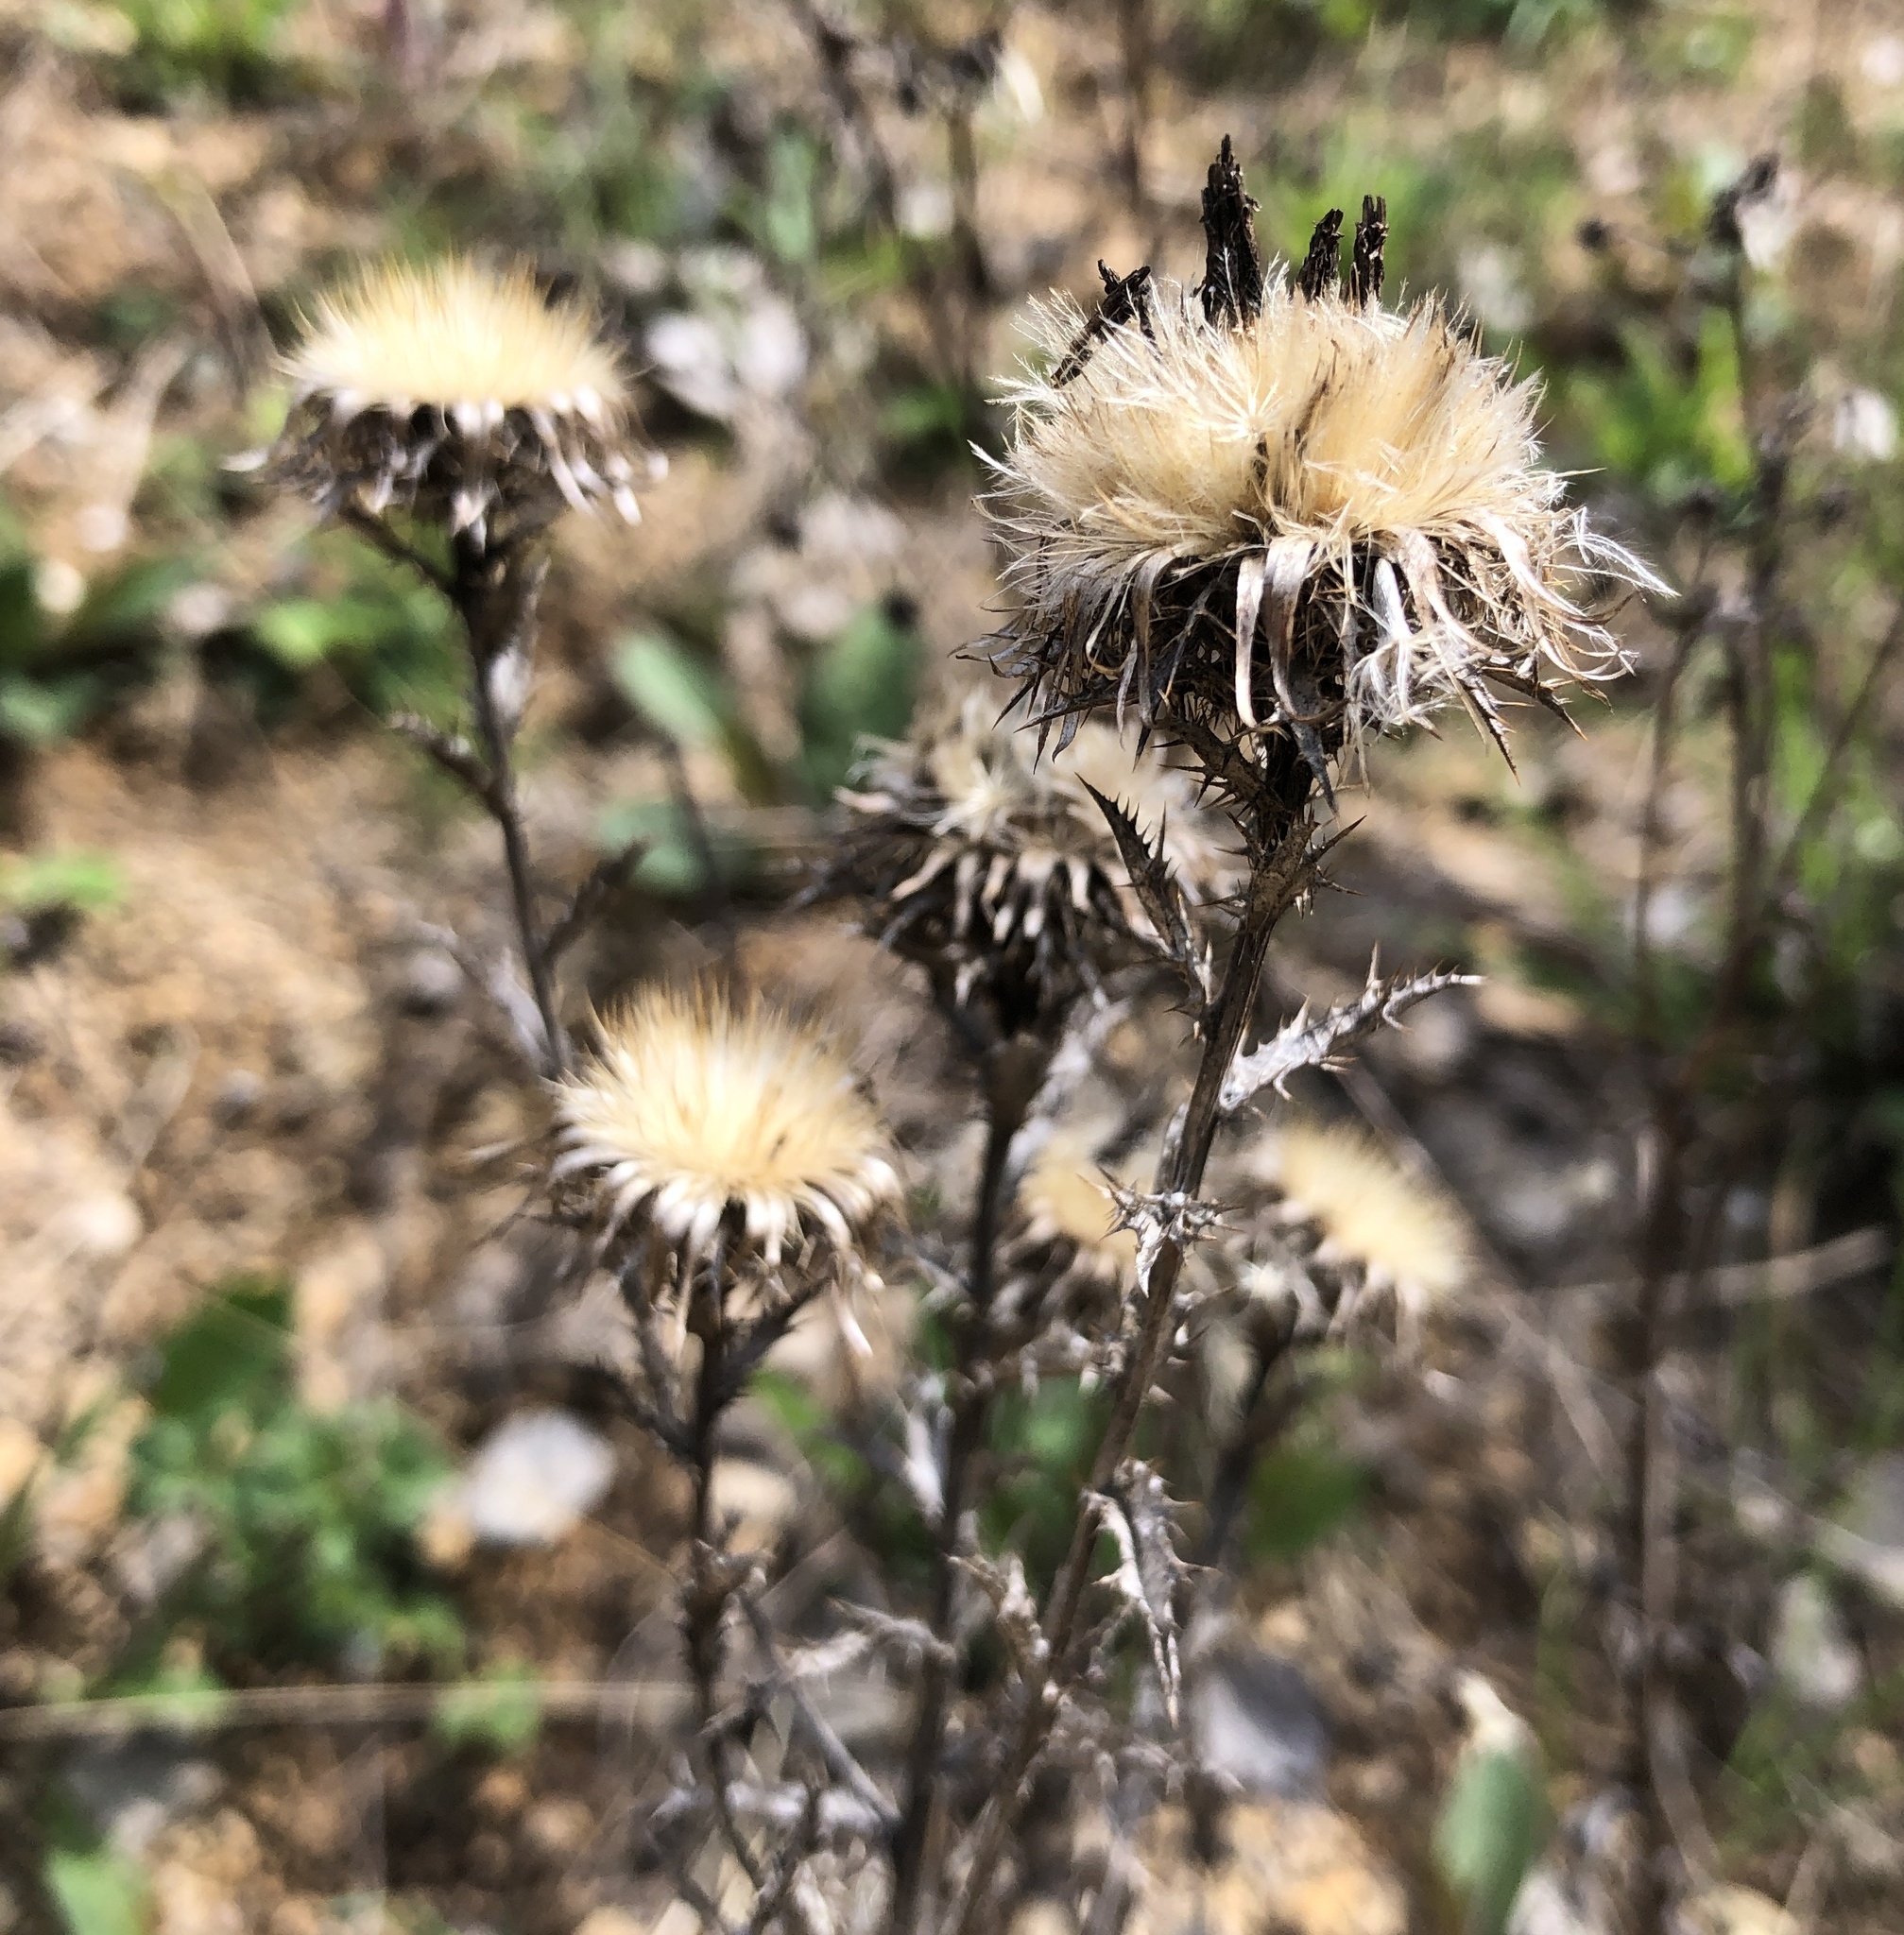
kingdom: Plantae
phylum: Tracheophyta
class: Magnoliopsida
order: Asterales
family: Asteraceae
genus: Carlina
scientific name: Carlina vulgaris
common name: Carline thistle
